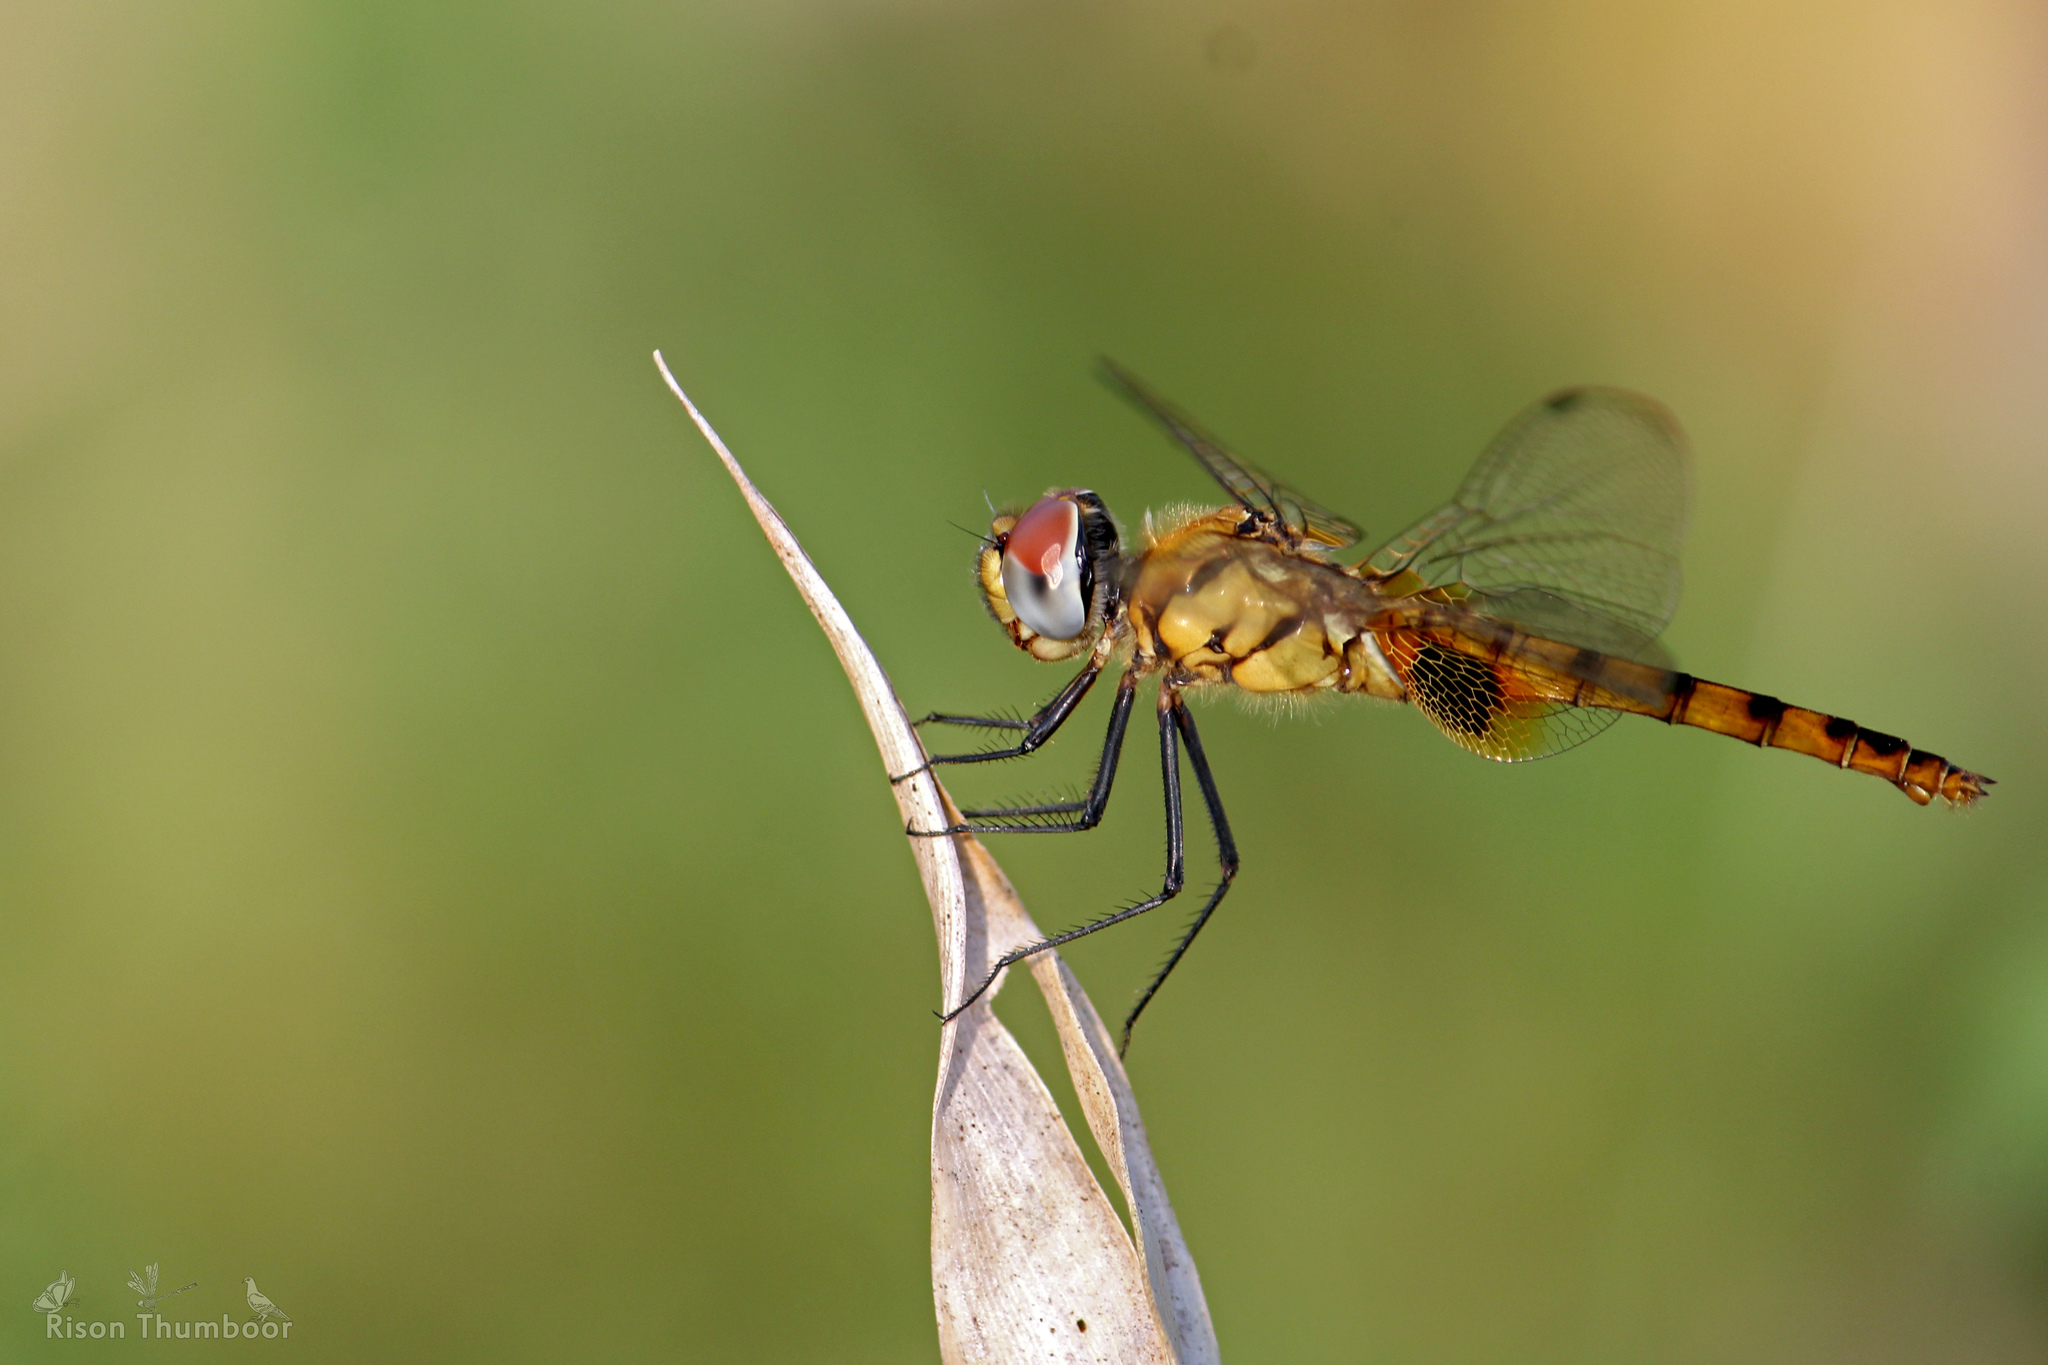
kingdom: Animalia
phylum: Arthropoda
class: Insecta
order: Odonata
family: Libellulidae
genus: Urothemis
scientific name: Urothemis signata
